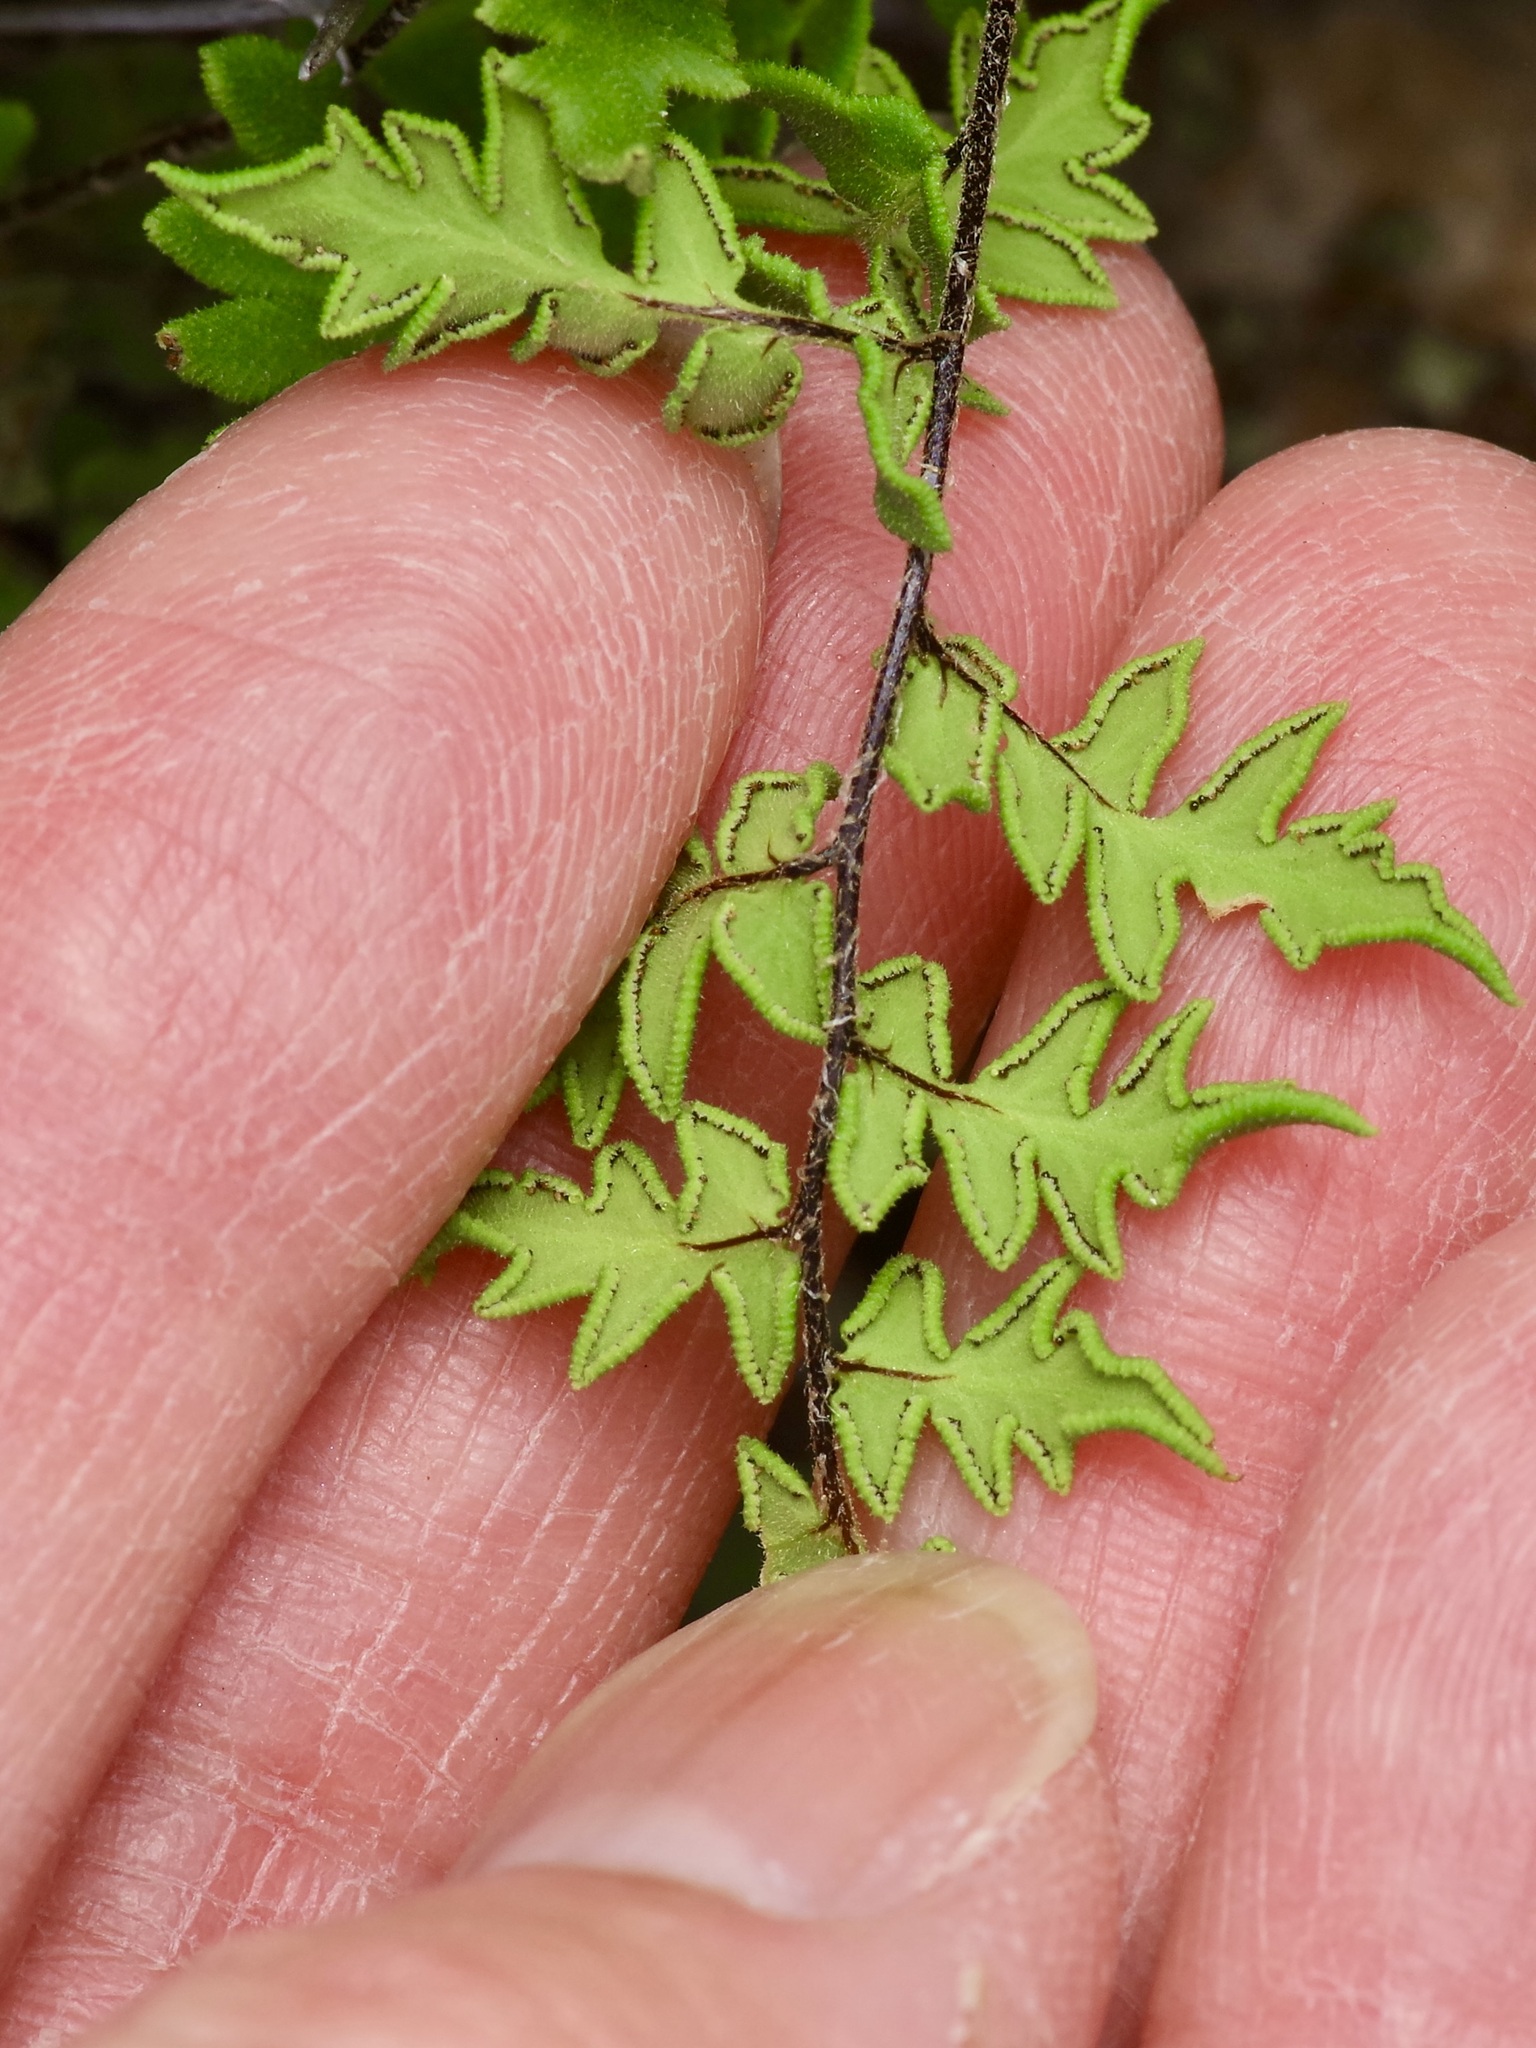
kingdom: Plantae
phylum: Tracheophyta
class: Polypodiopsida
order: Polypodiales
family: Pteridaceae
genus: Myriopteris
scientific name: Myriopteris scabra
